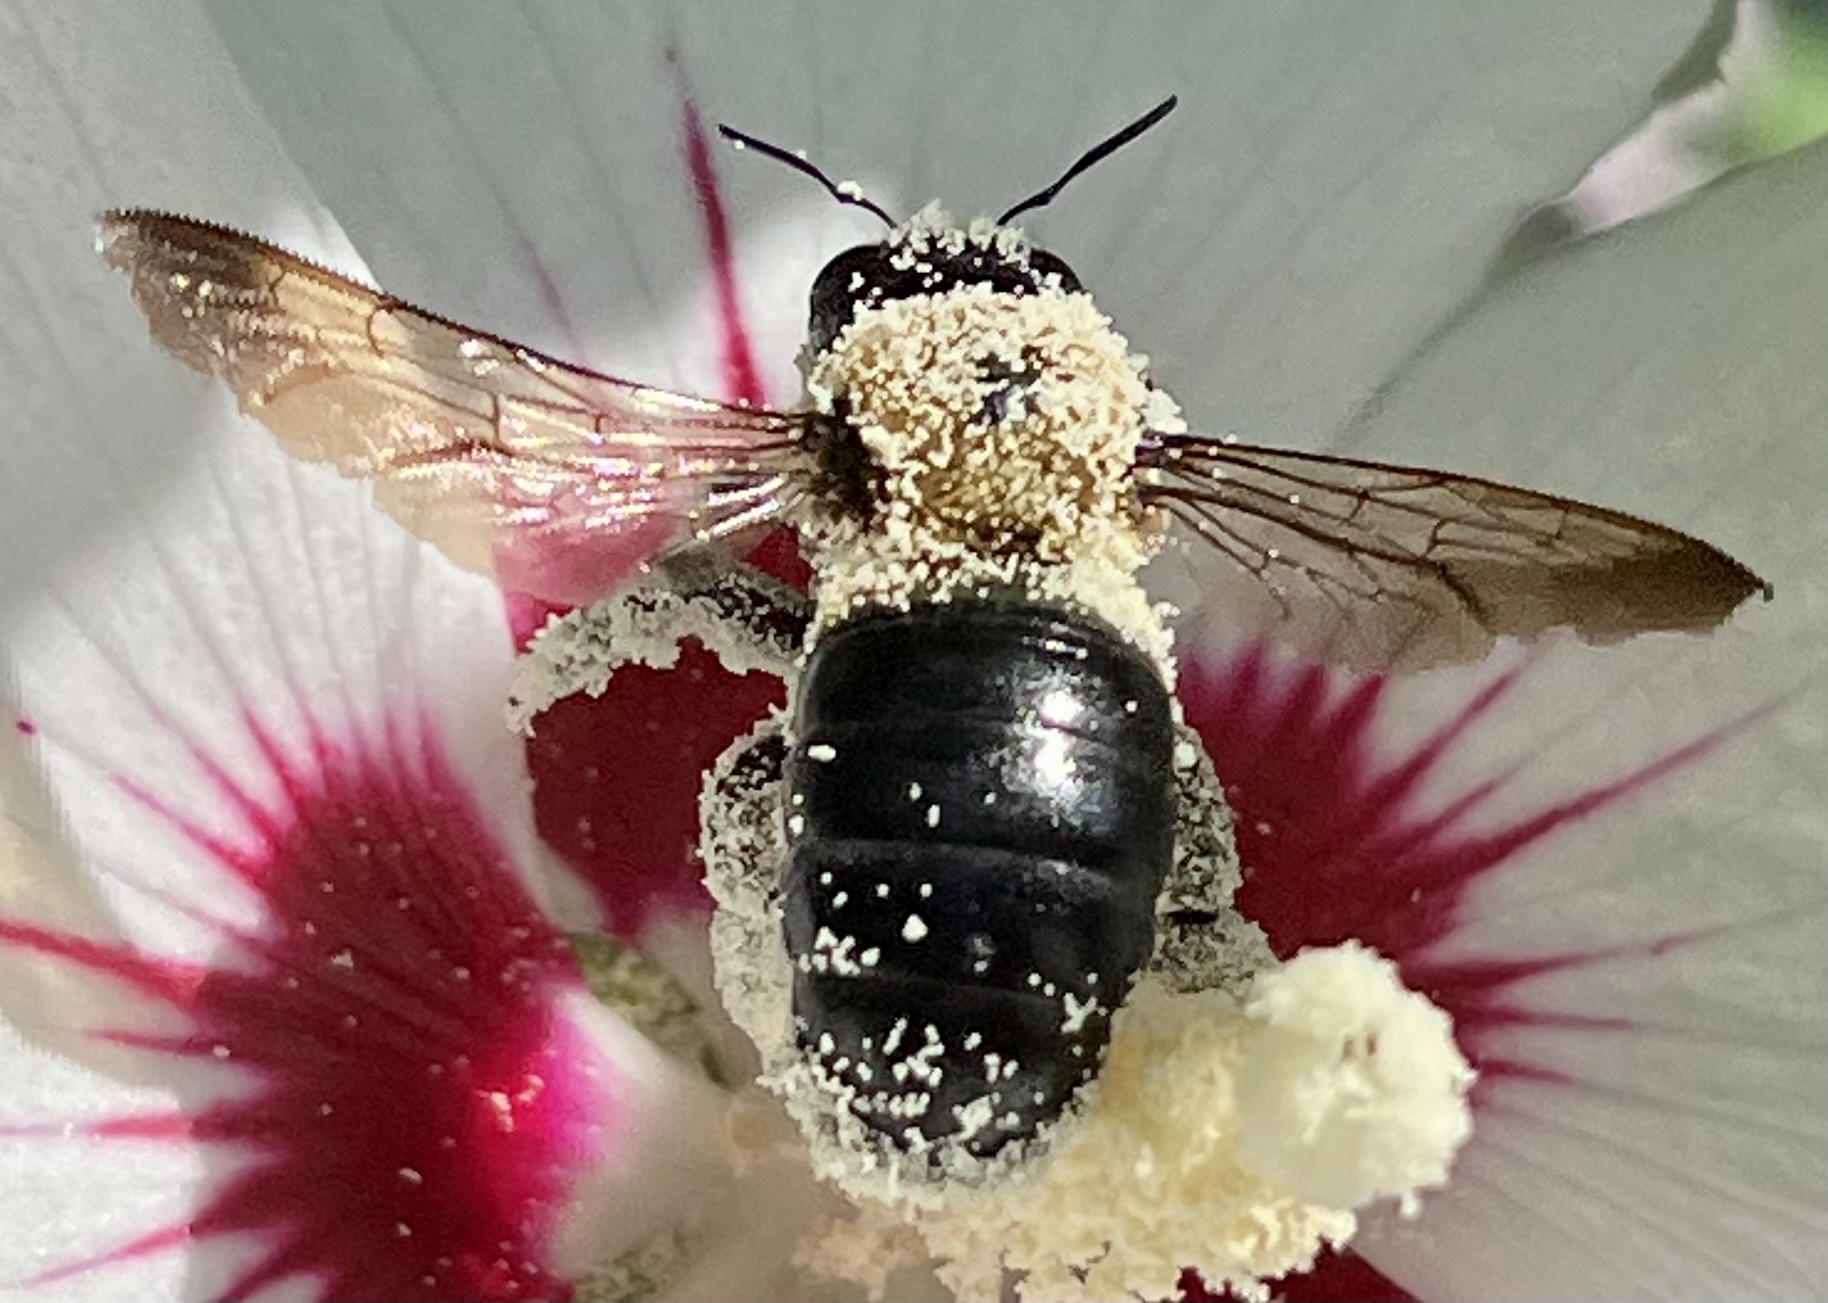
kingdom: Animalia
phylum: Arthropoda
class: Insecta
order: Hymenoptera
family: Apidae
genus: Xylocopa
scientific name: Xylocopa virginica
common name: Carpenter bee
